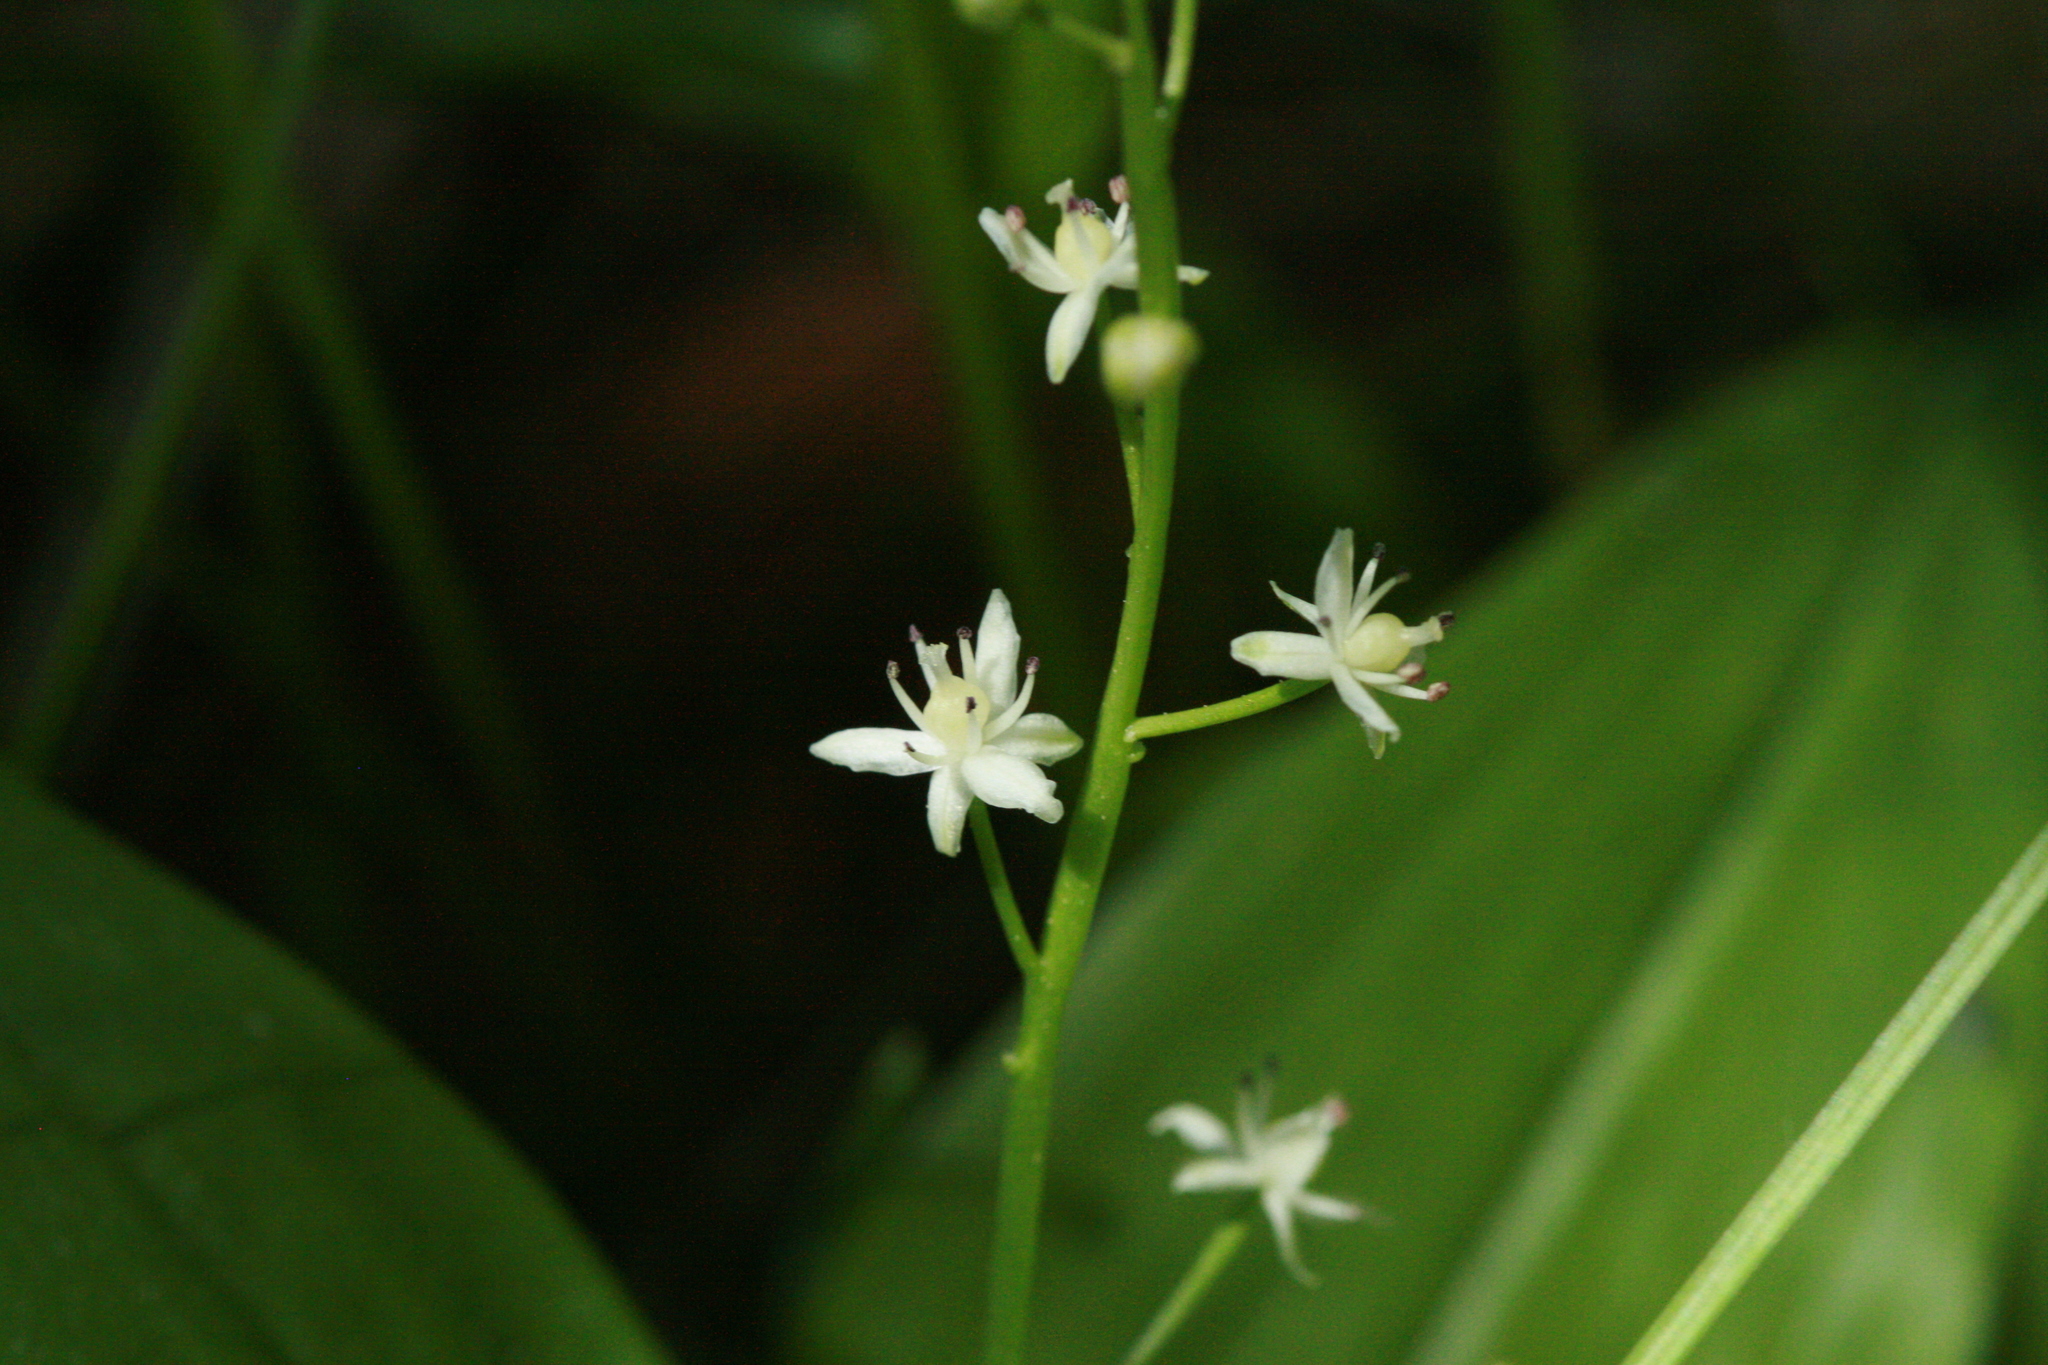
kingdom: Plantae
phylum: Tracheophyta
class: Liliopsida
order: Asparagales
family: Asparagaceae
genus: Maianthemum
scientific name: Maianthemum stellatum
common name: Little false solomon's seal
